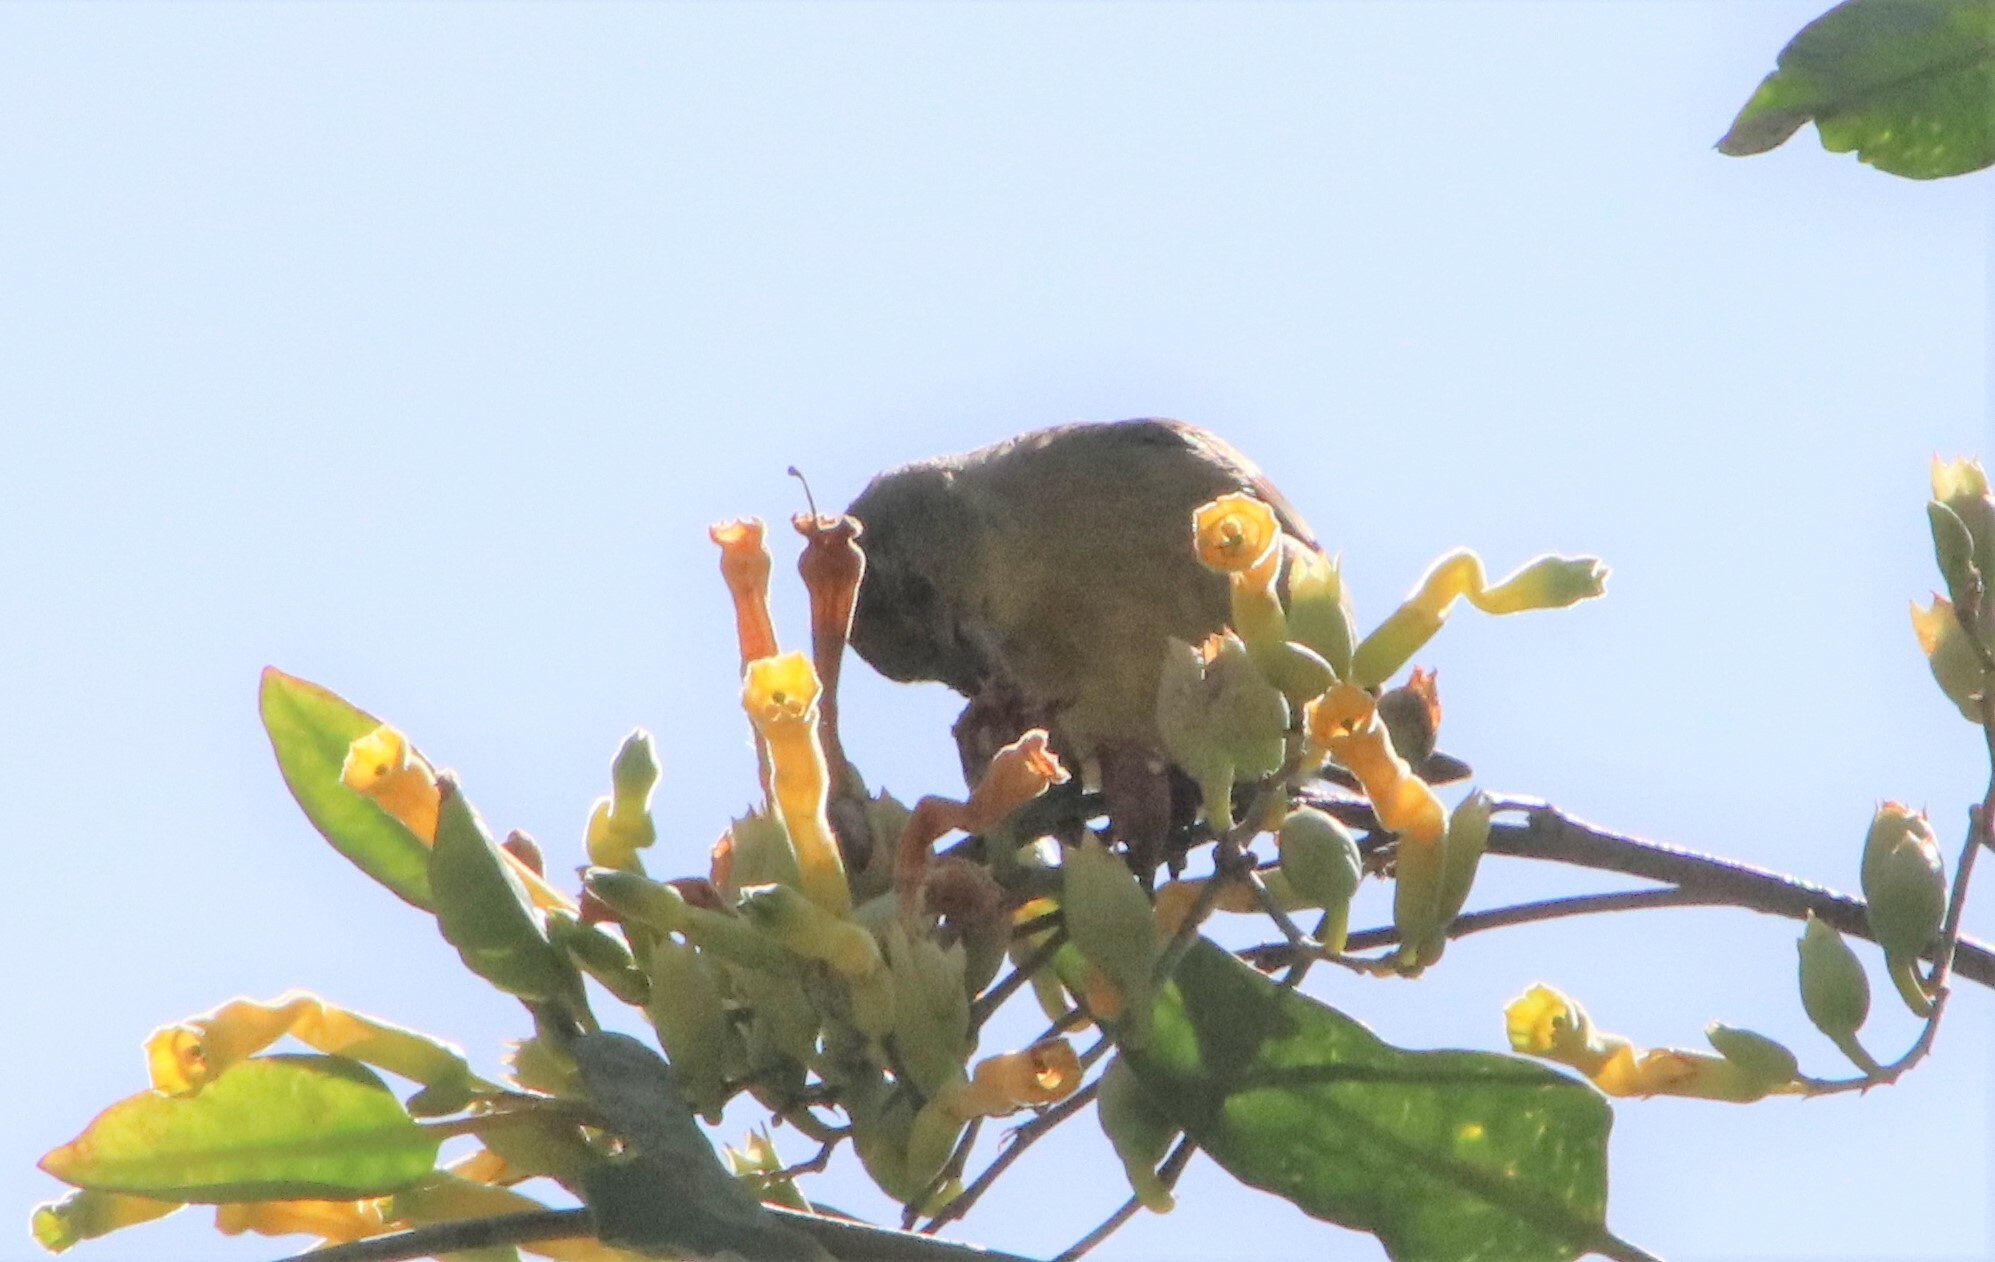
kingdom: Animalia
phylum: Chordata
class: Aves
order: Passeriformes
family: Fringillidae
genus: Spinus
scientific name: Spinus psaltria
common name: Lesser goldfinch
